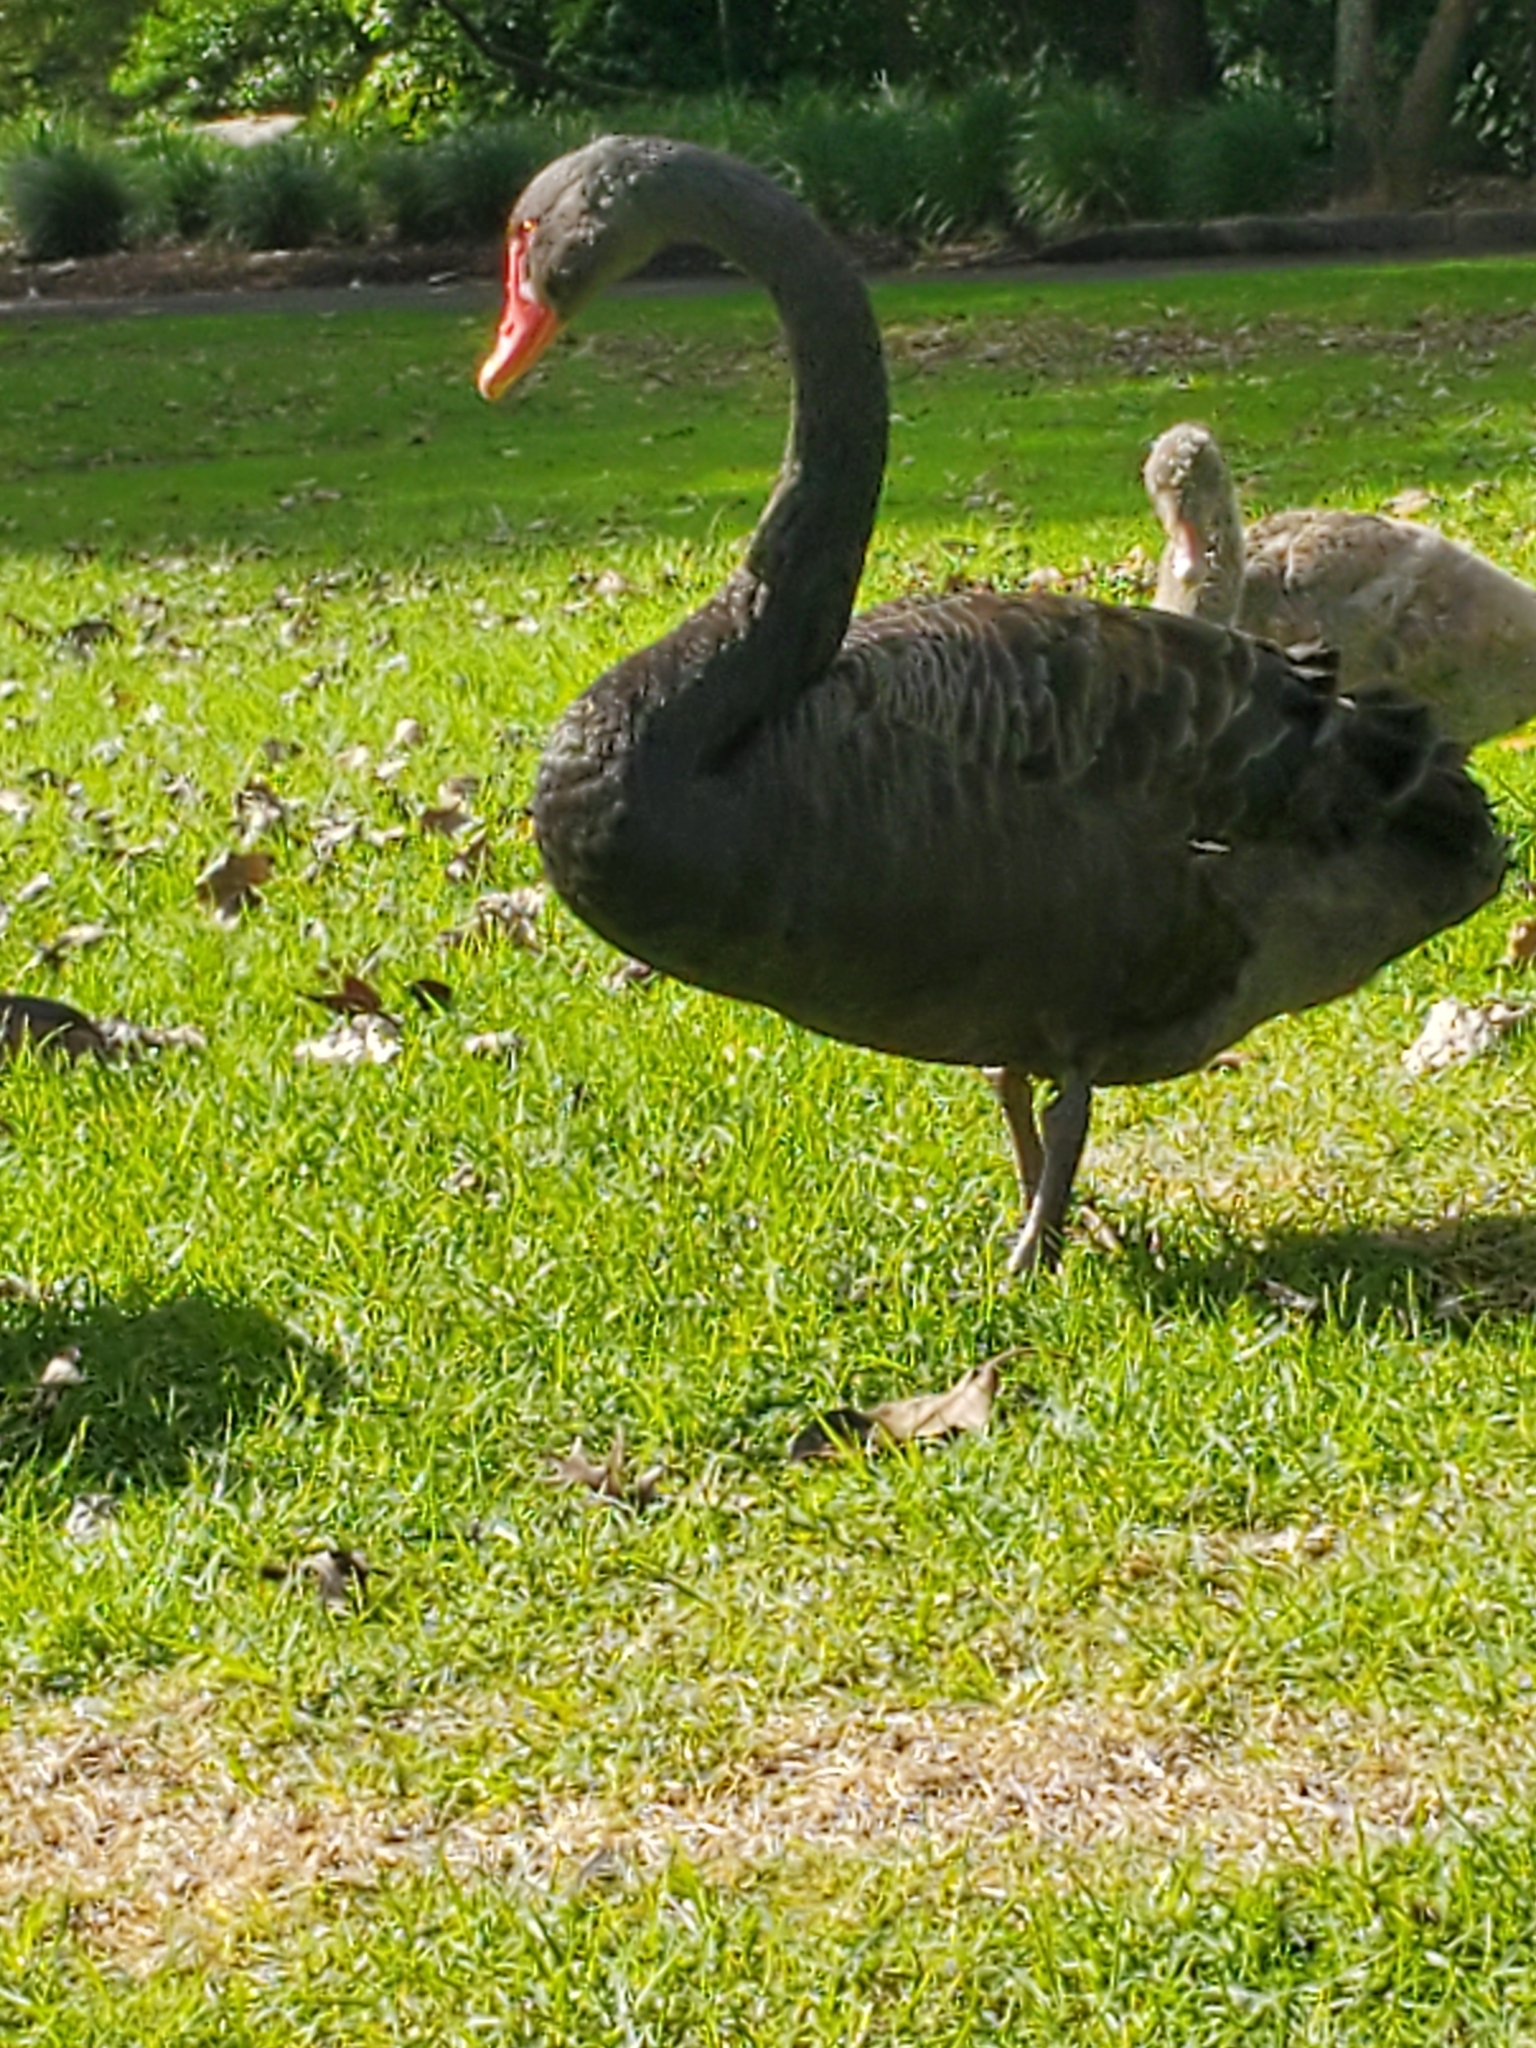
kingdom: Animalia
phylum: Chordata
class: Aves
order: Anseriformes
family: Anatidae
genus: Cygnus
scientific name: Cygnus atratus
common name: Black swan
